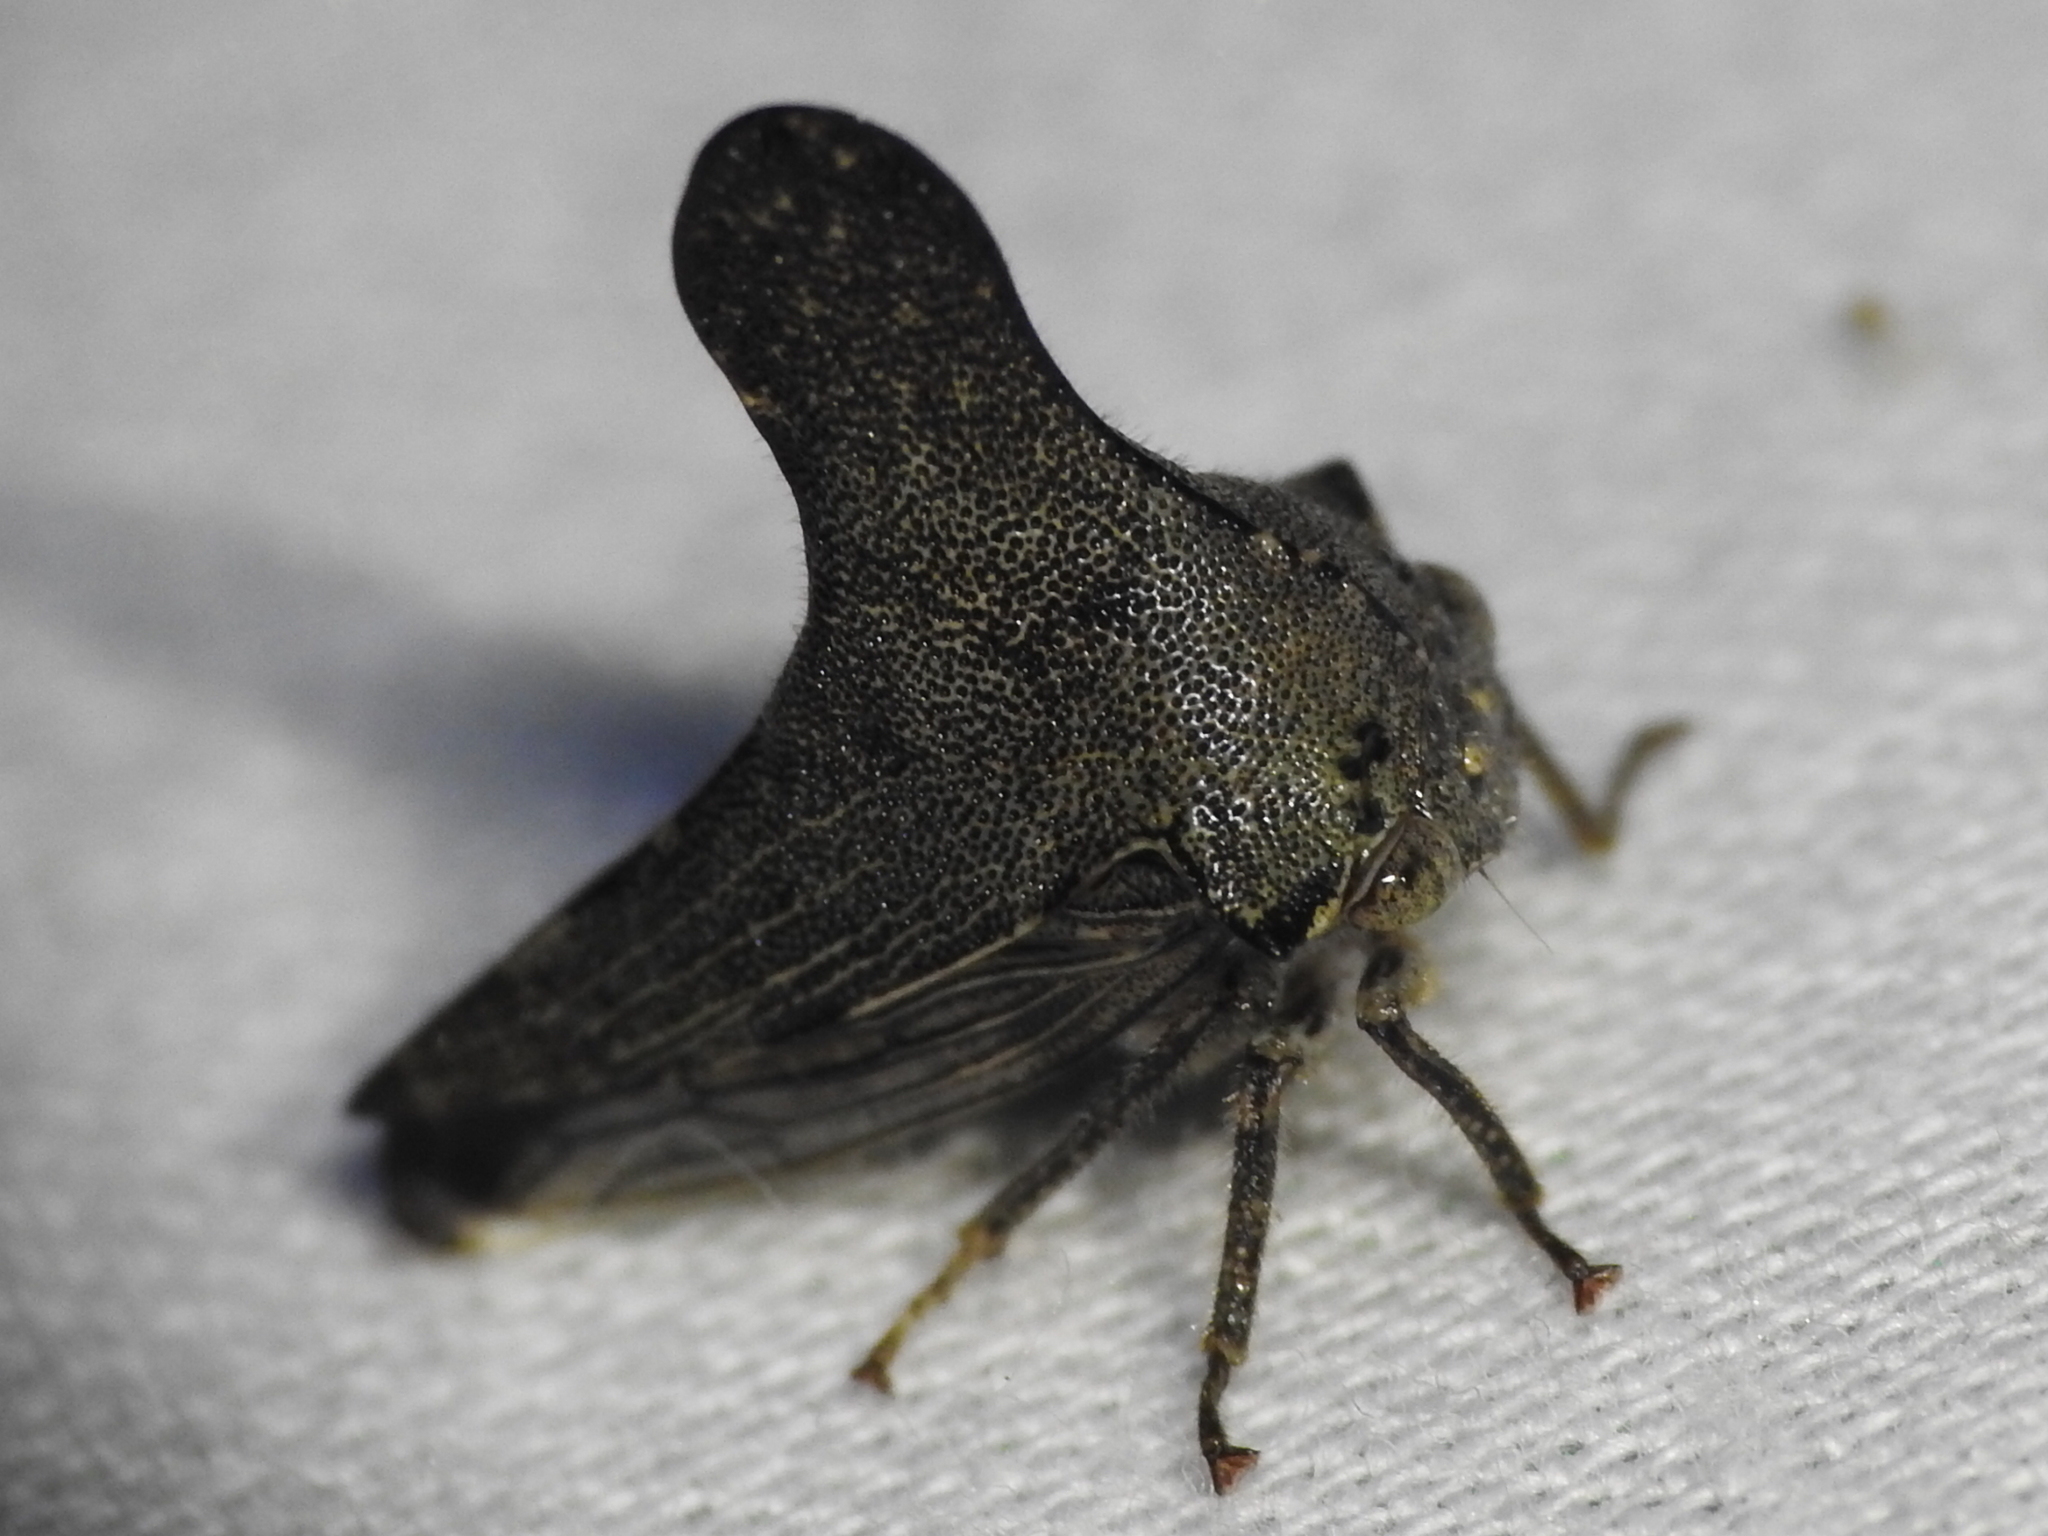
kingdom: Animalia
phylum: Arthropoda
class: Insecta
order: Hemiptera
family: Membracidae
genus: Glossonotus
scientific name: Glossonotus acuminata
